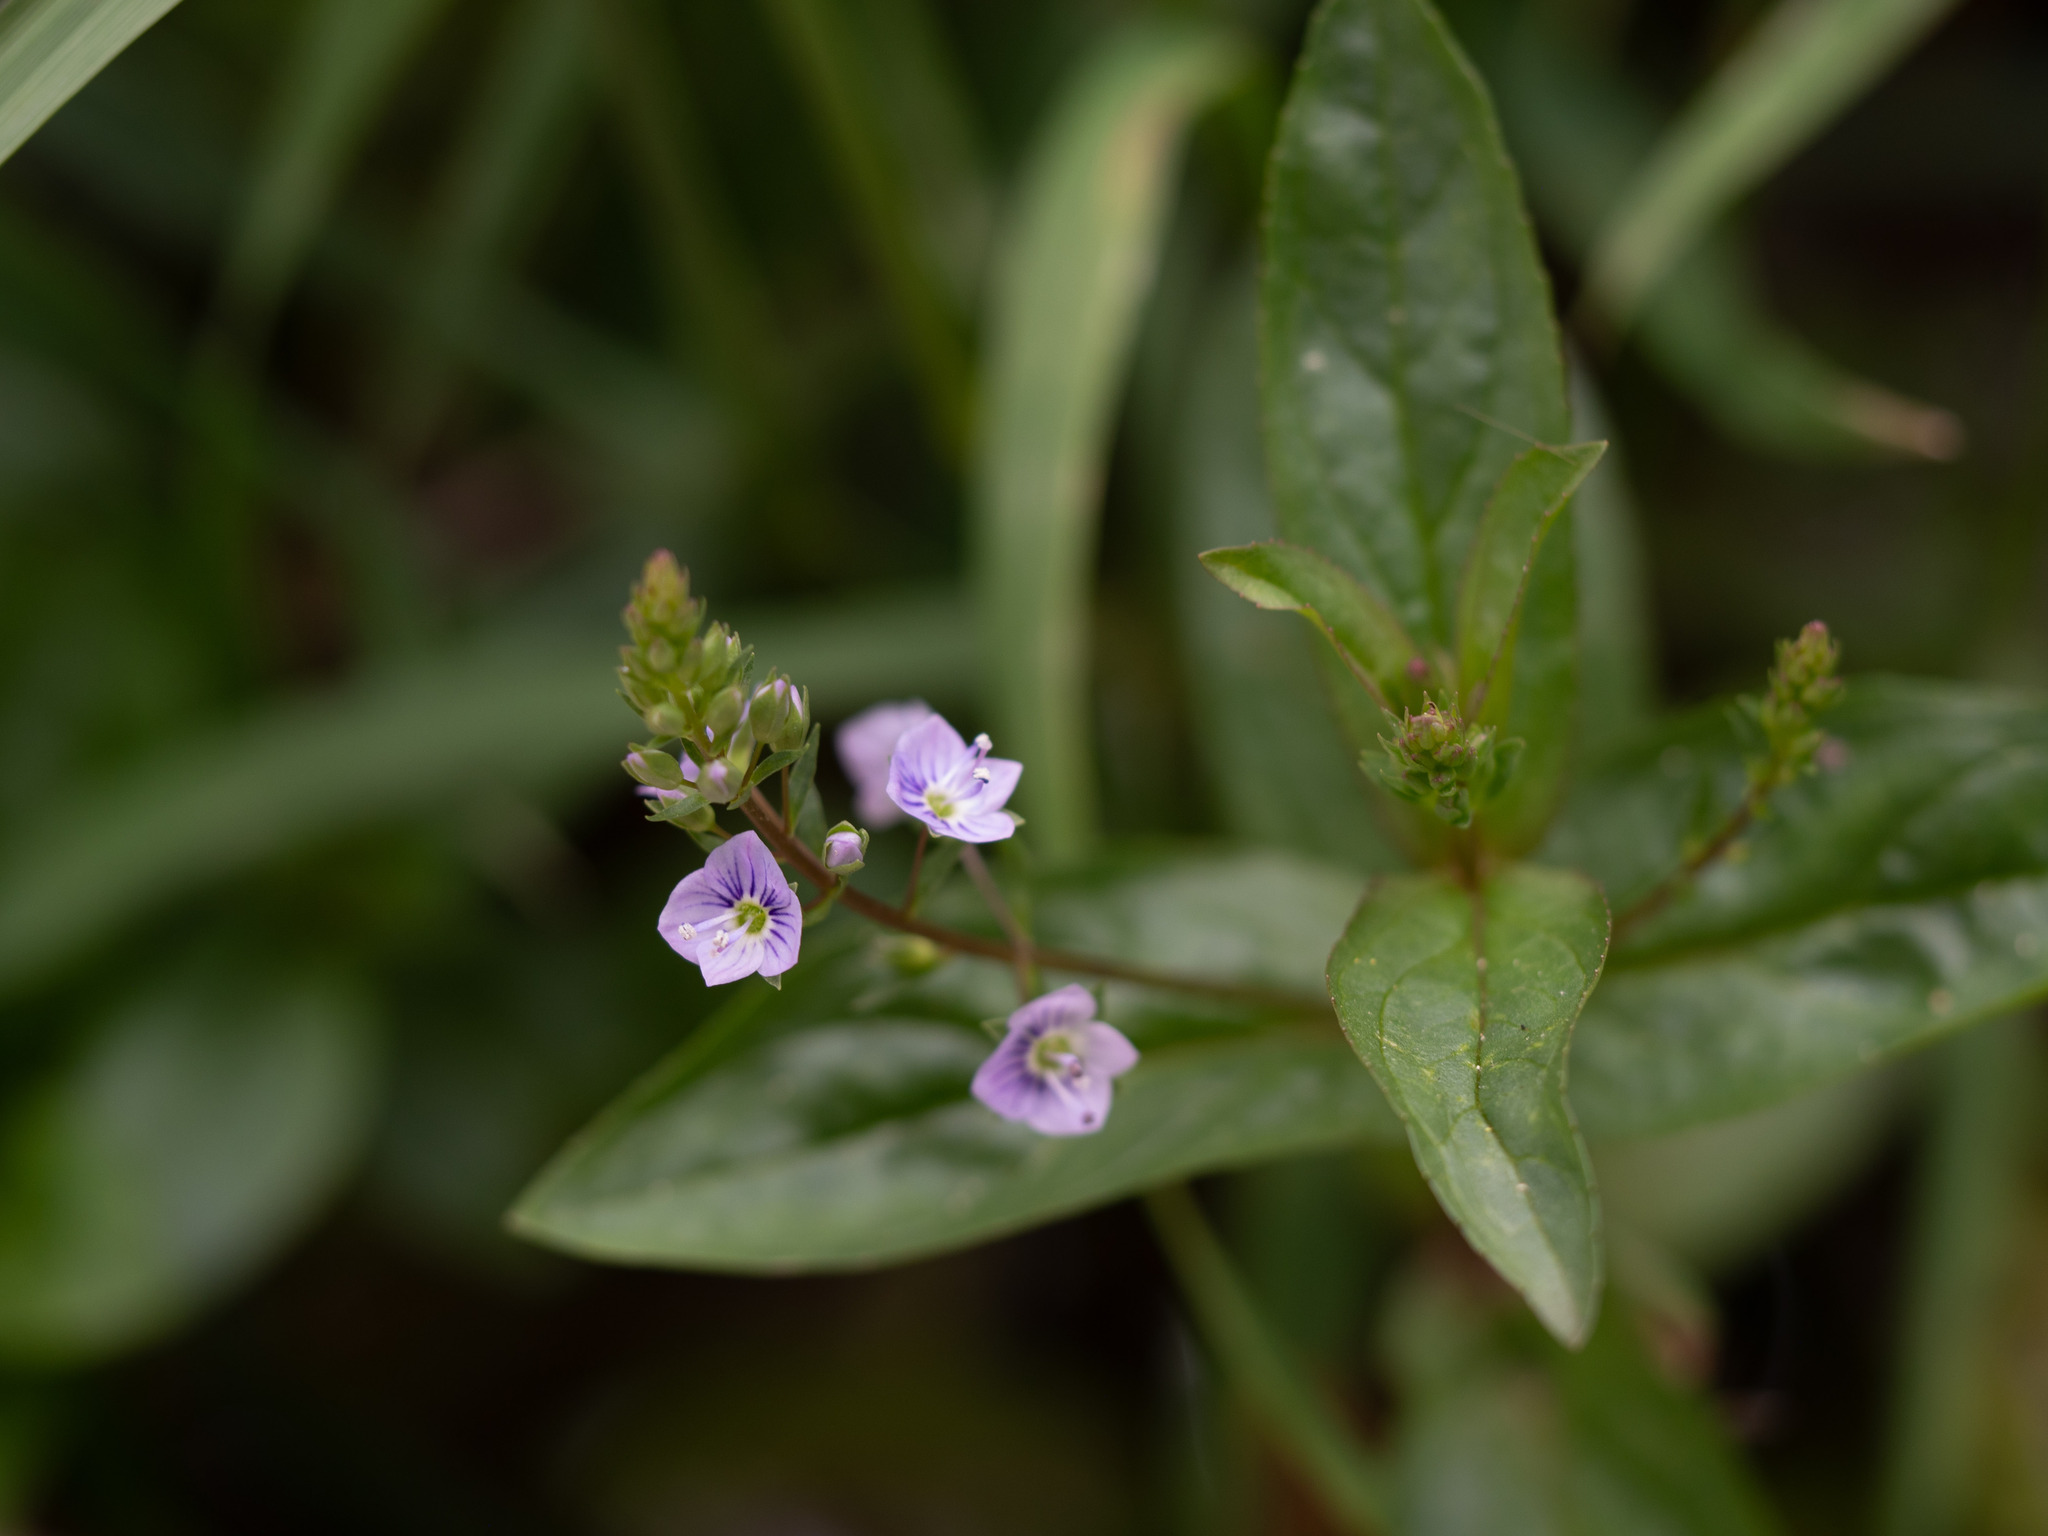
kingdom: Plantae
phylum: Tracheophyta
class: Magnoliopsida
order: Lamiales
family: Plantaginaceae
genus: Veronica
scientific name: Veronica anagallis-aquatica
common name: Water speedwell
